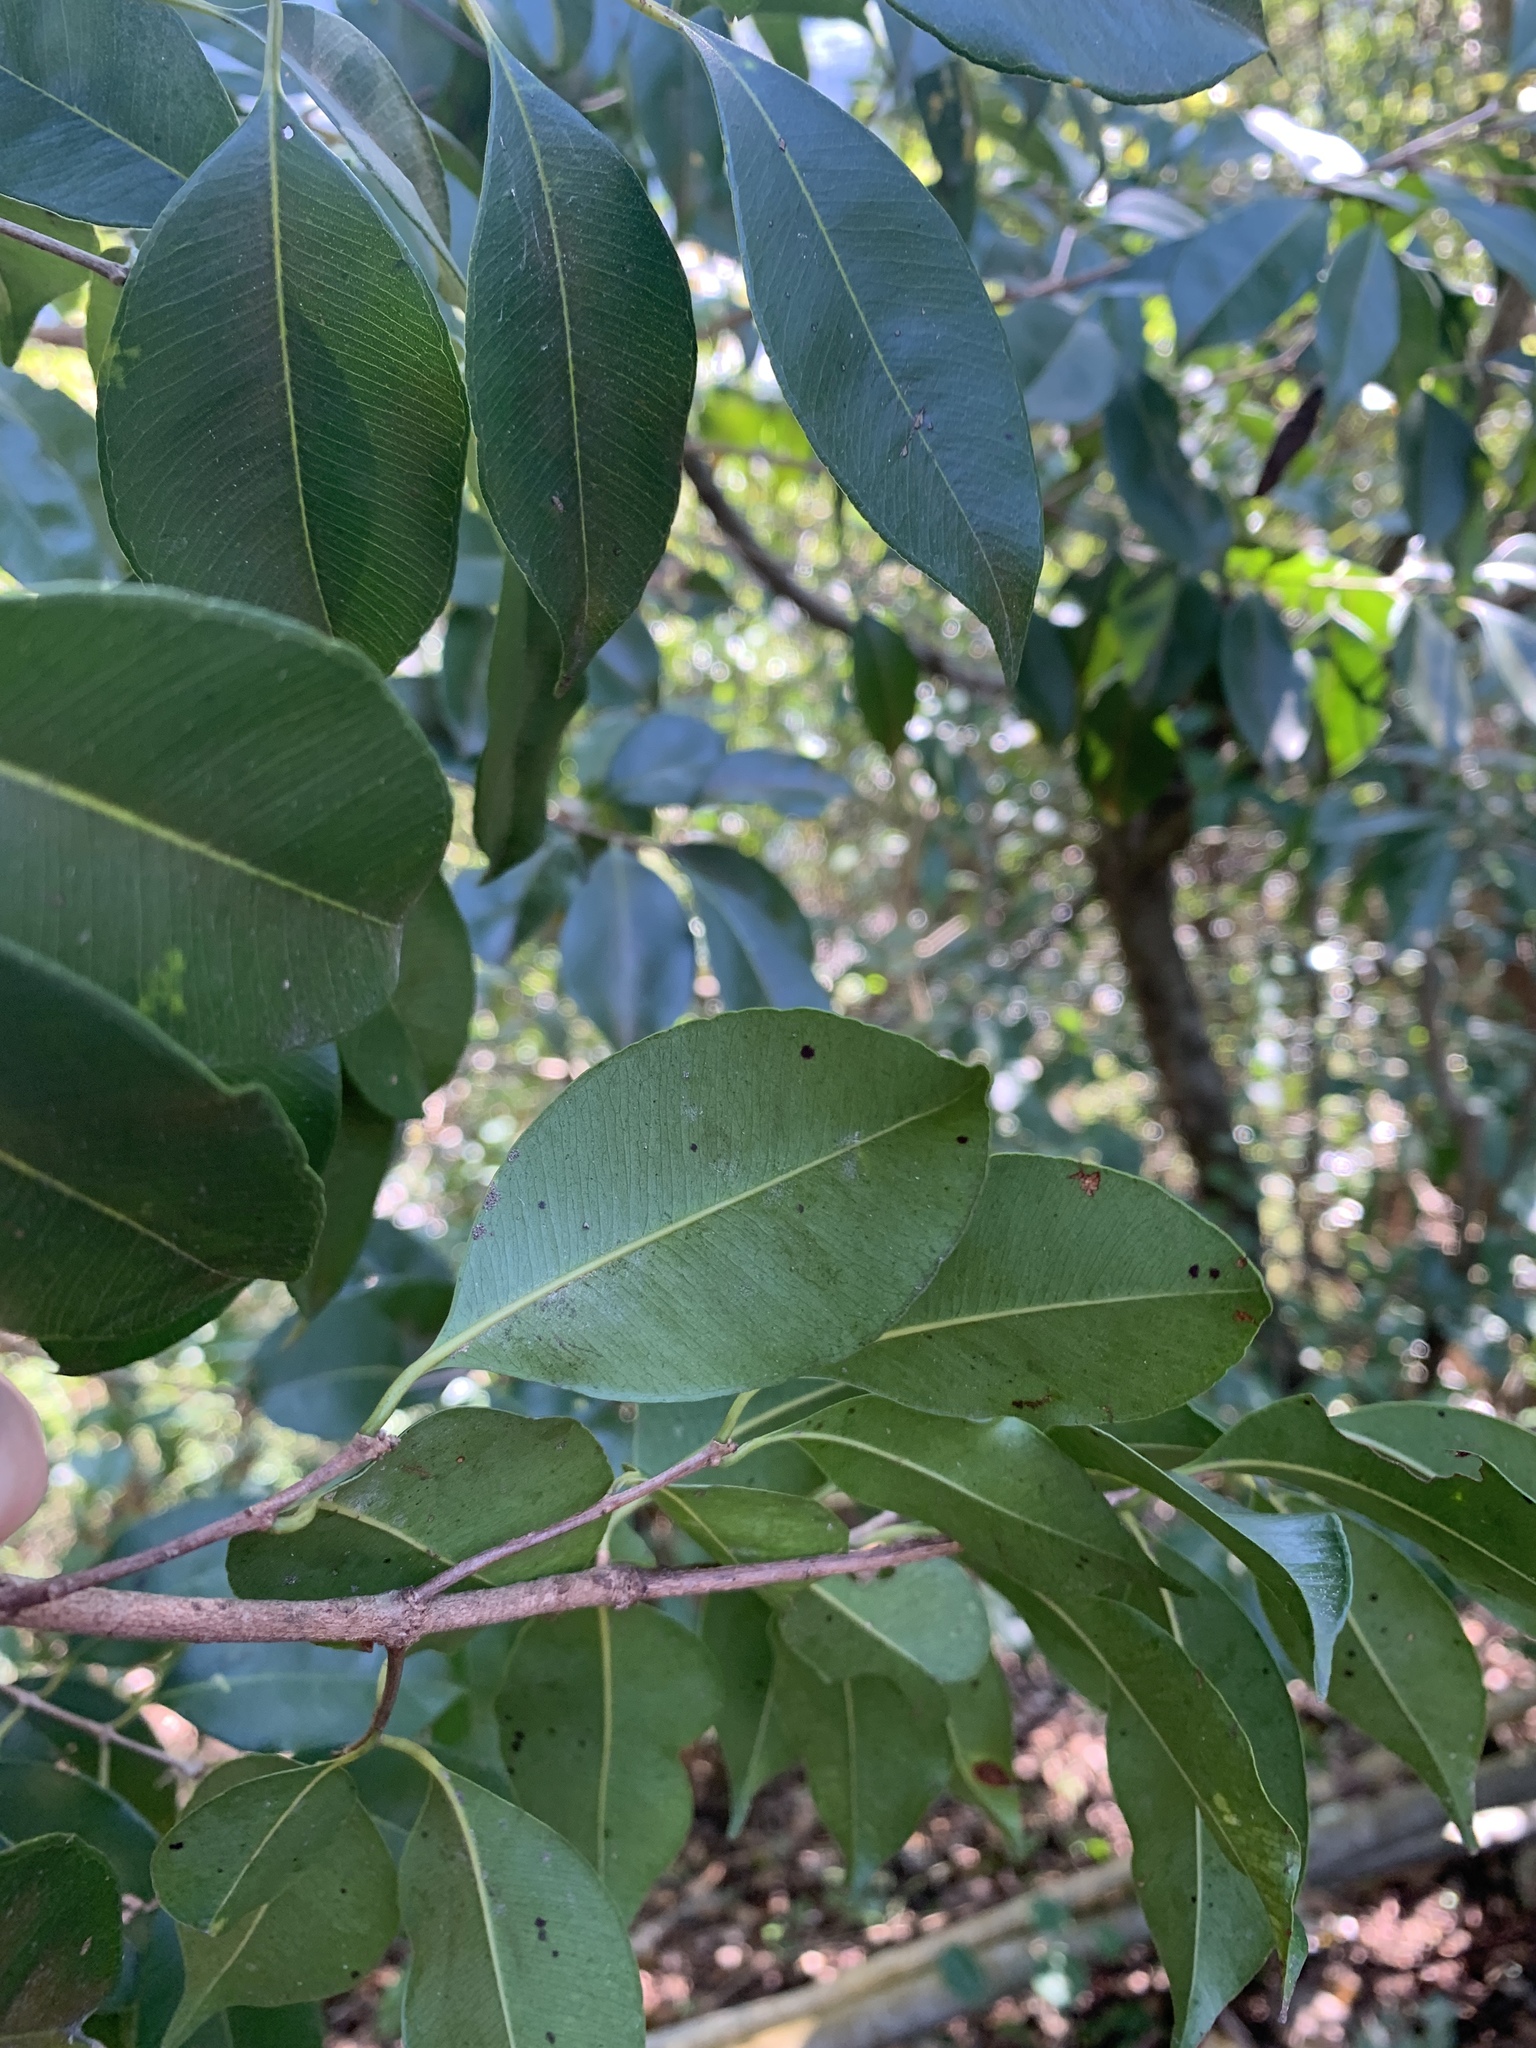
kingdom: Plantae
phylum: Tracheophyta
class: Magnoliopsida
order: Myrtales
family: Myrtaceae
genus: Syzygium
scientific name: Syzygium formosanum
